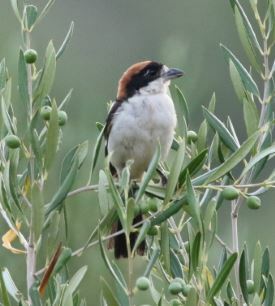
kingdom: Animalia
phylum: Chordata
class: Aves
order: Passeriformes
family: Laniidae
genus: Lanius
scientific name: Lanius senator
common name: Woodchat shrike
